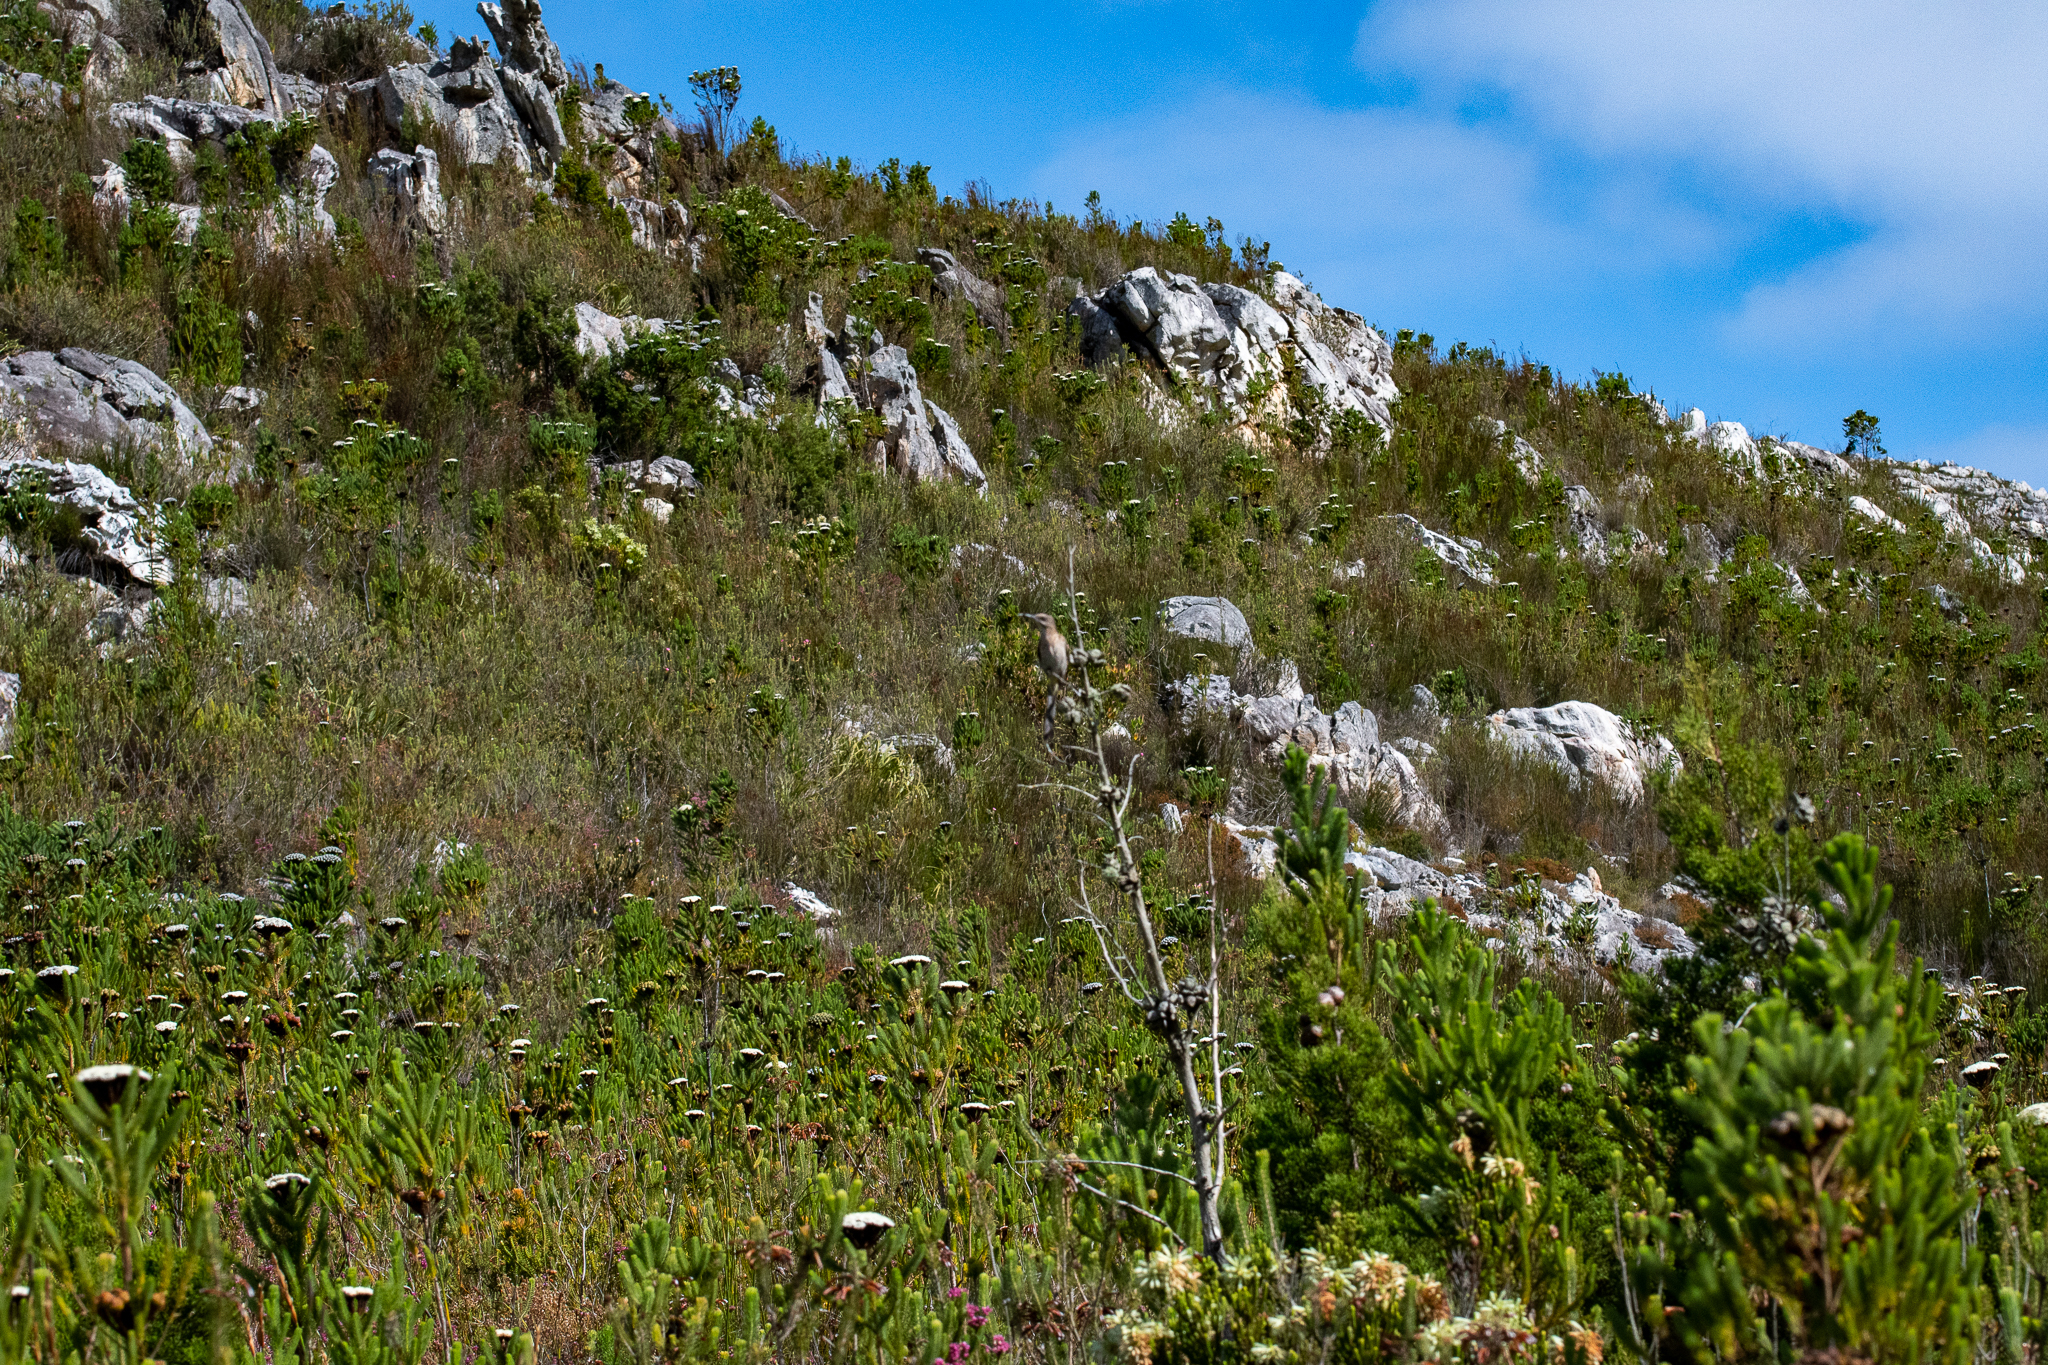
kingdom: Plantae
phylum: Tracheophyta
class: Magnoliopsida
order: Bruniales
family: Bruniaceae
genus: Berzelia
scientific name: Berzelia albiflora
